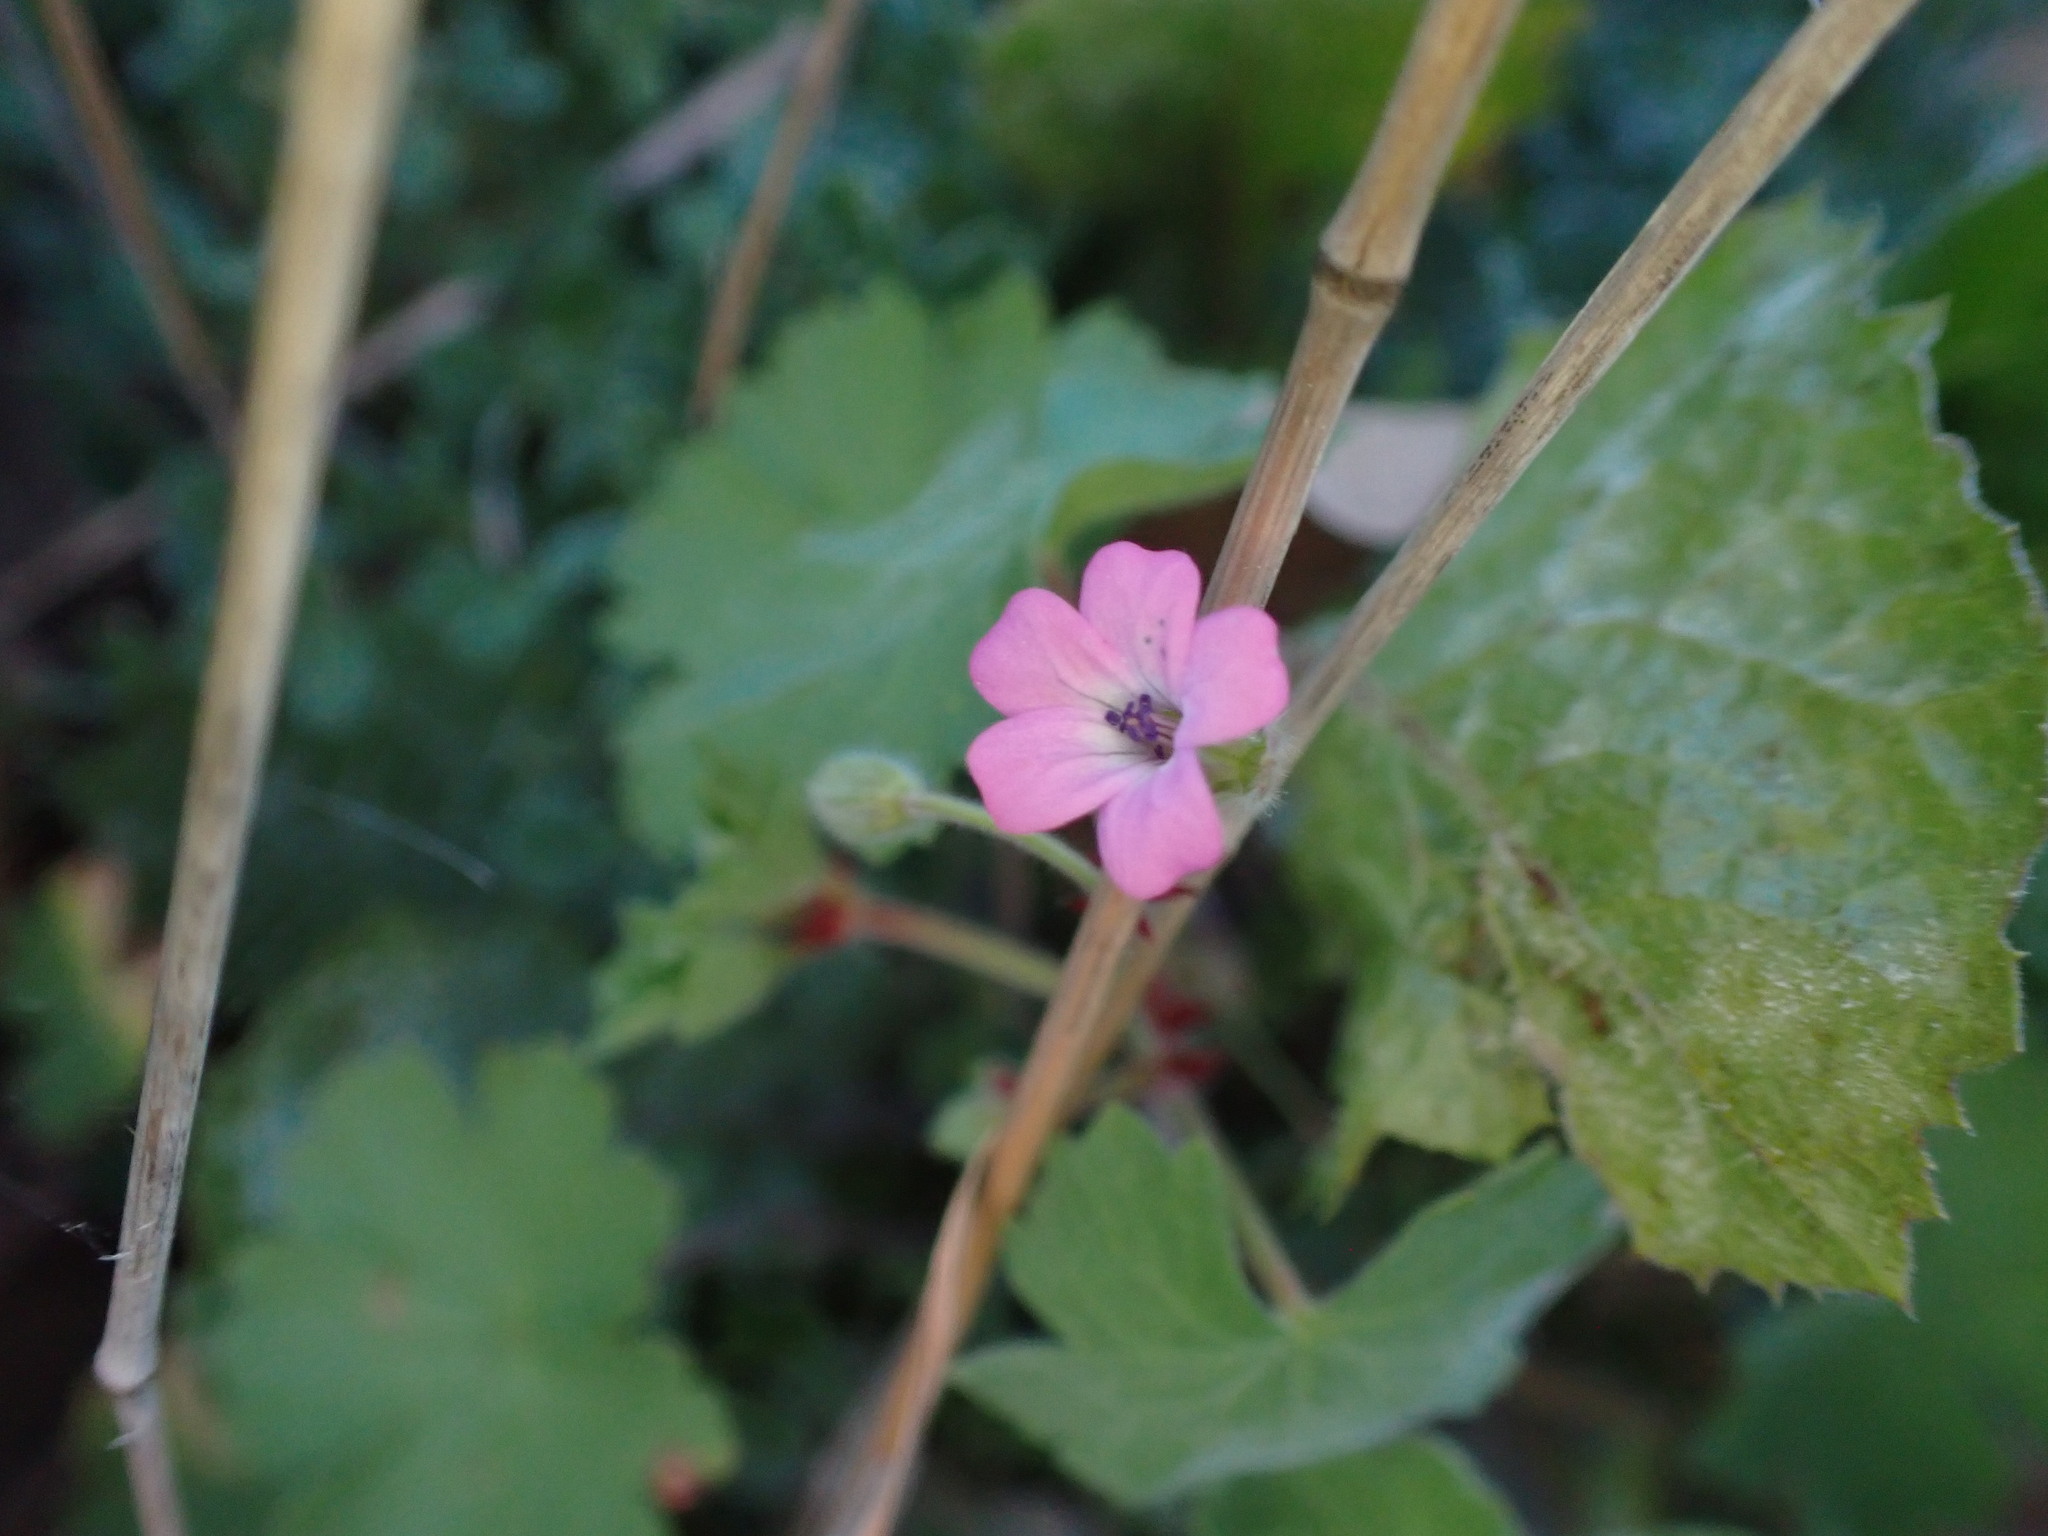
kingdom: Plantae
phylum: Tracheophyta
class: Magnoliopsida
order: Geraniales
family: Geraniaceae
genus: Geranium
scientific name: Geranium rotundifolium
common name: Round-leaved crane's-bill
